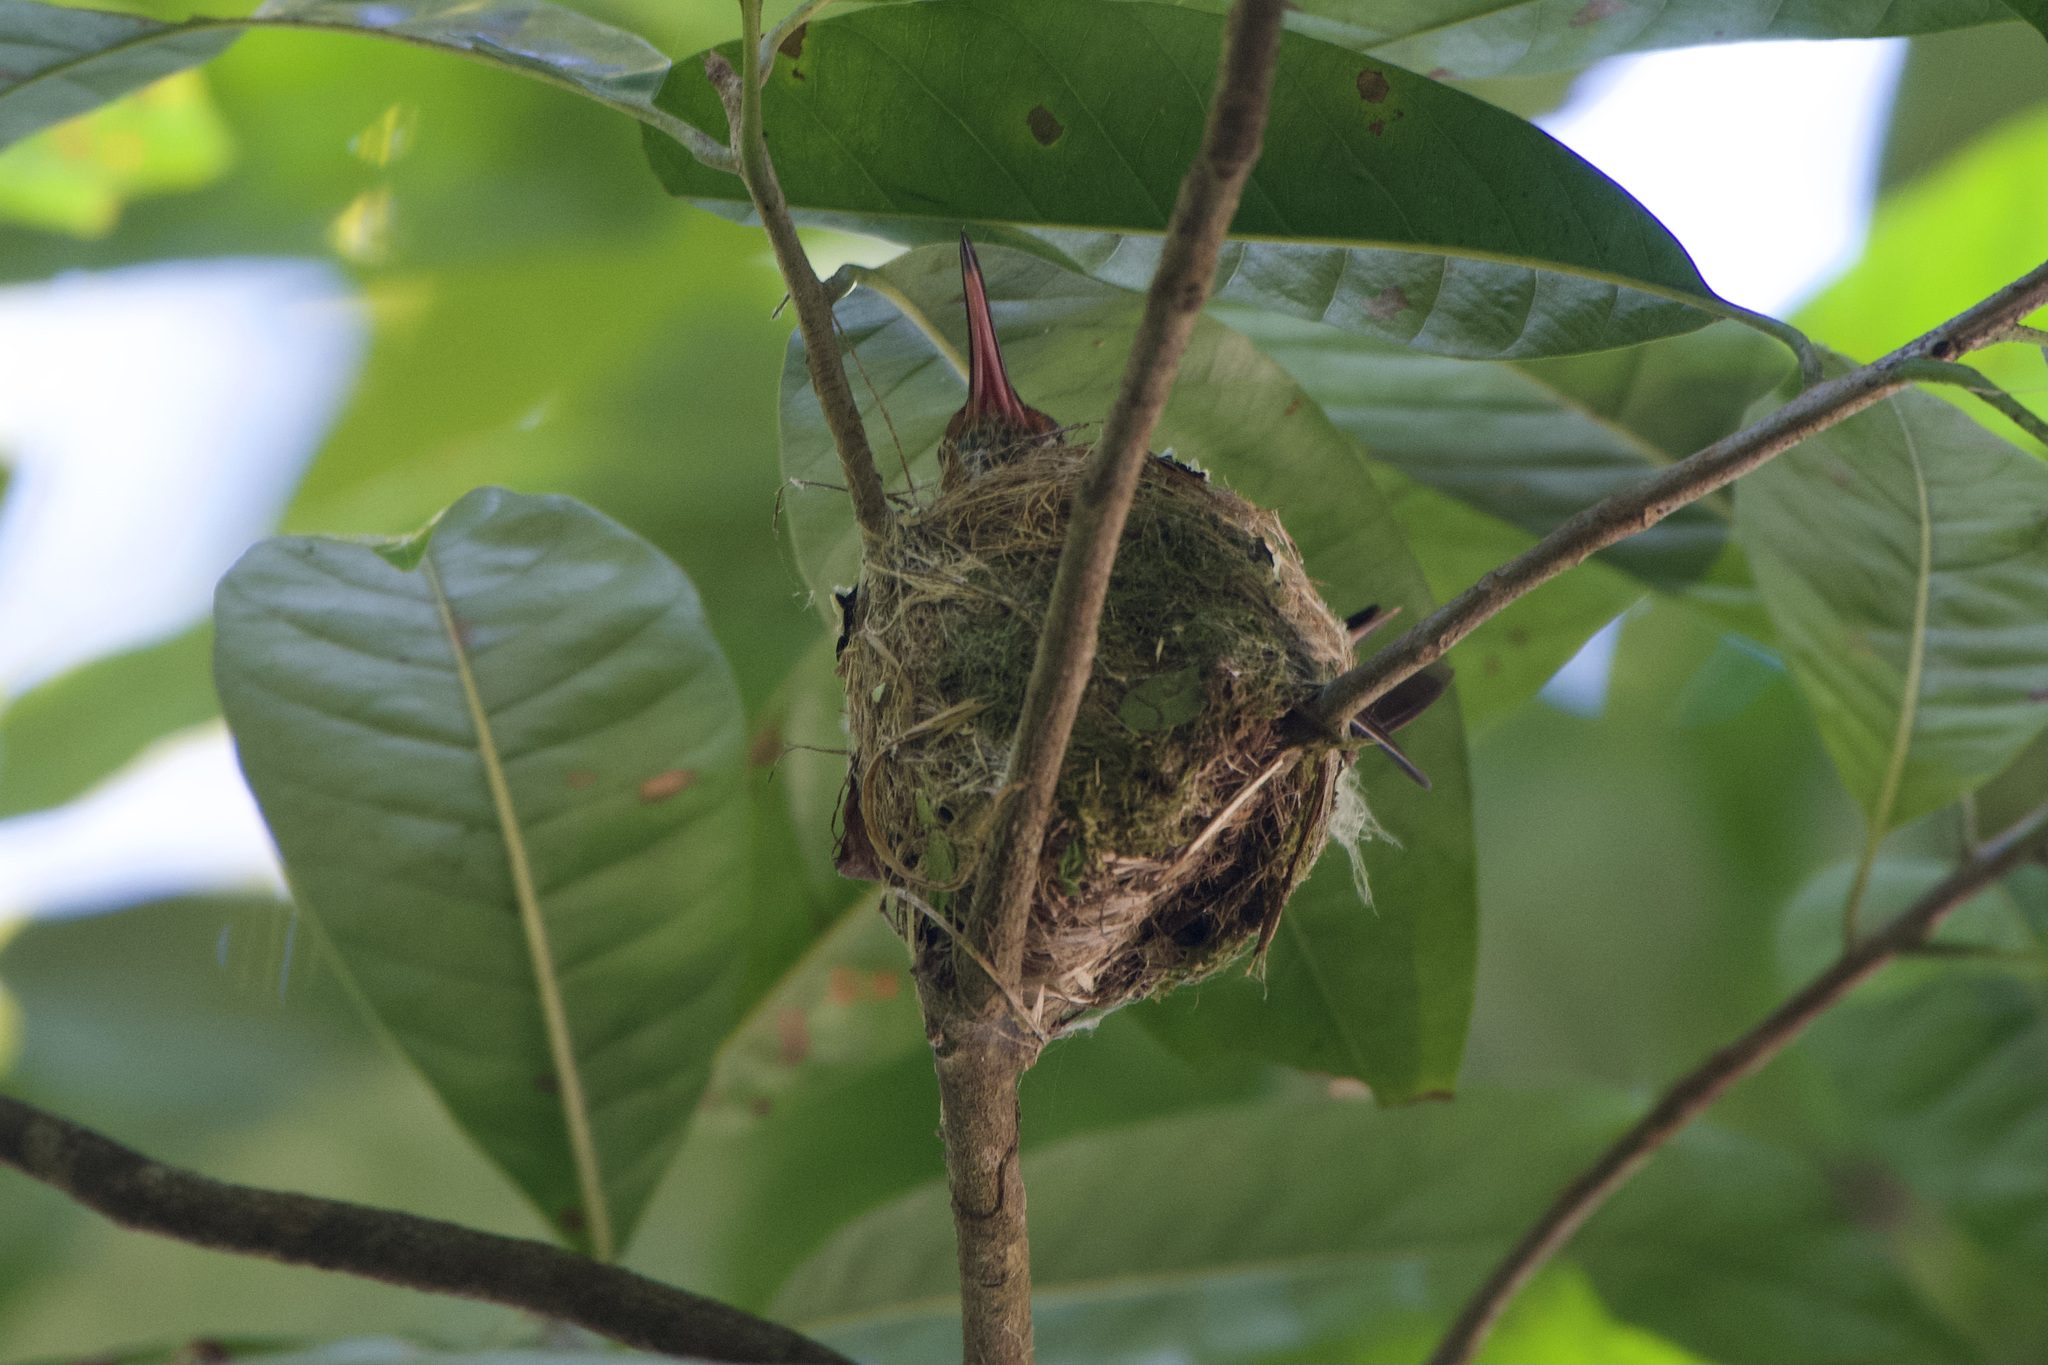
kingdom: Animalia
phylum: Chordata
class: Aves
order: Apodiformes
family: Trochilidae
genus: Amazilia
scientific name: Amazilia tzacatl
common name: Rufous-tailed hummingbird
